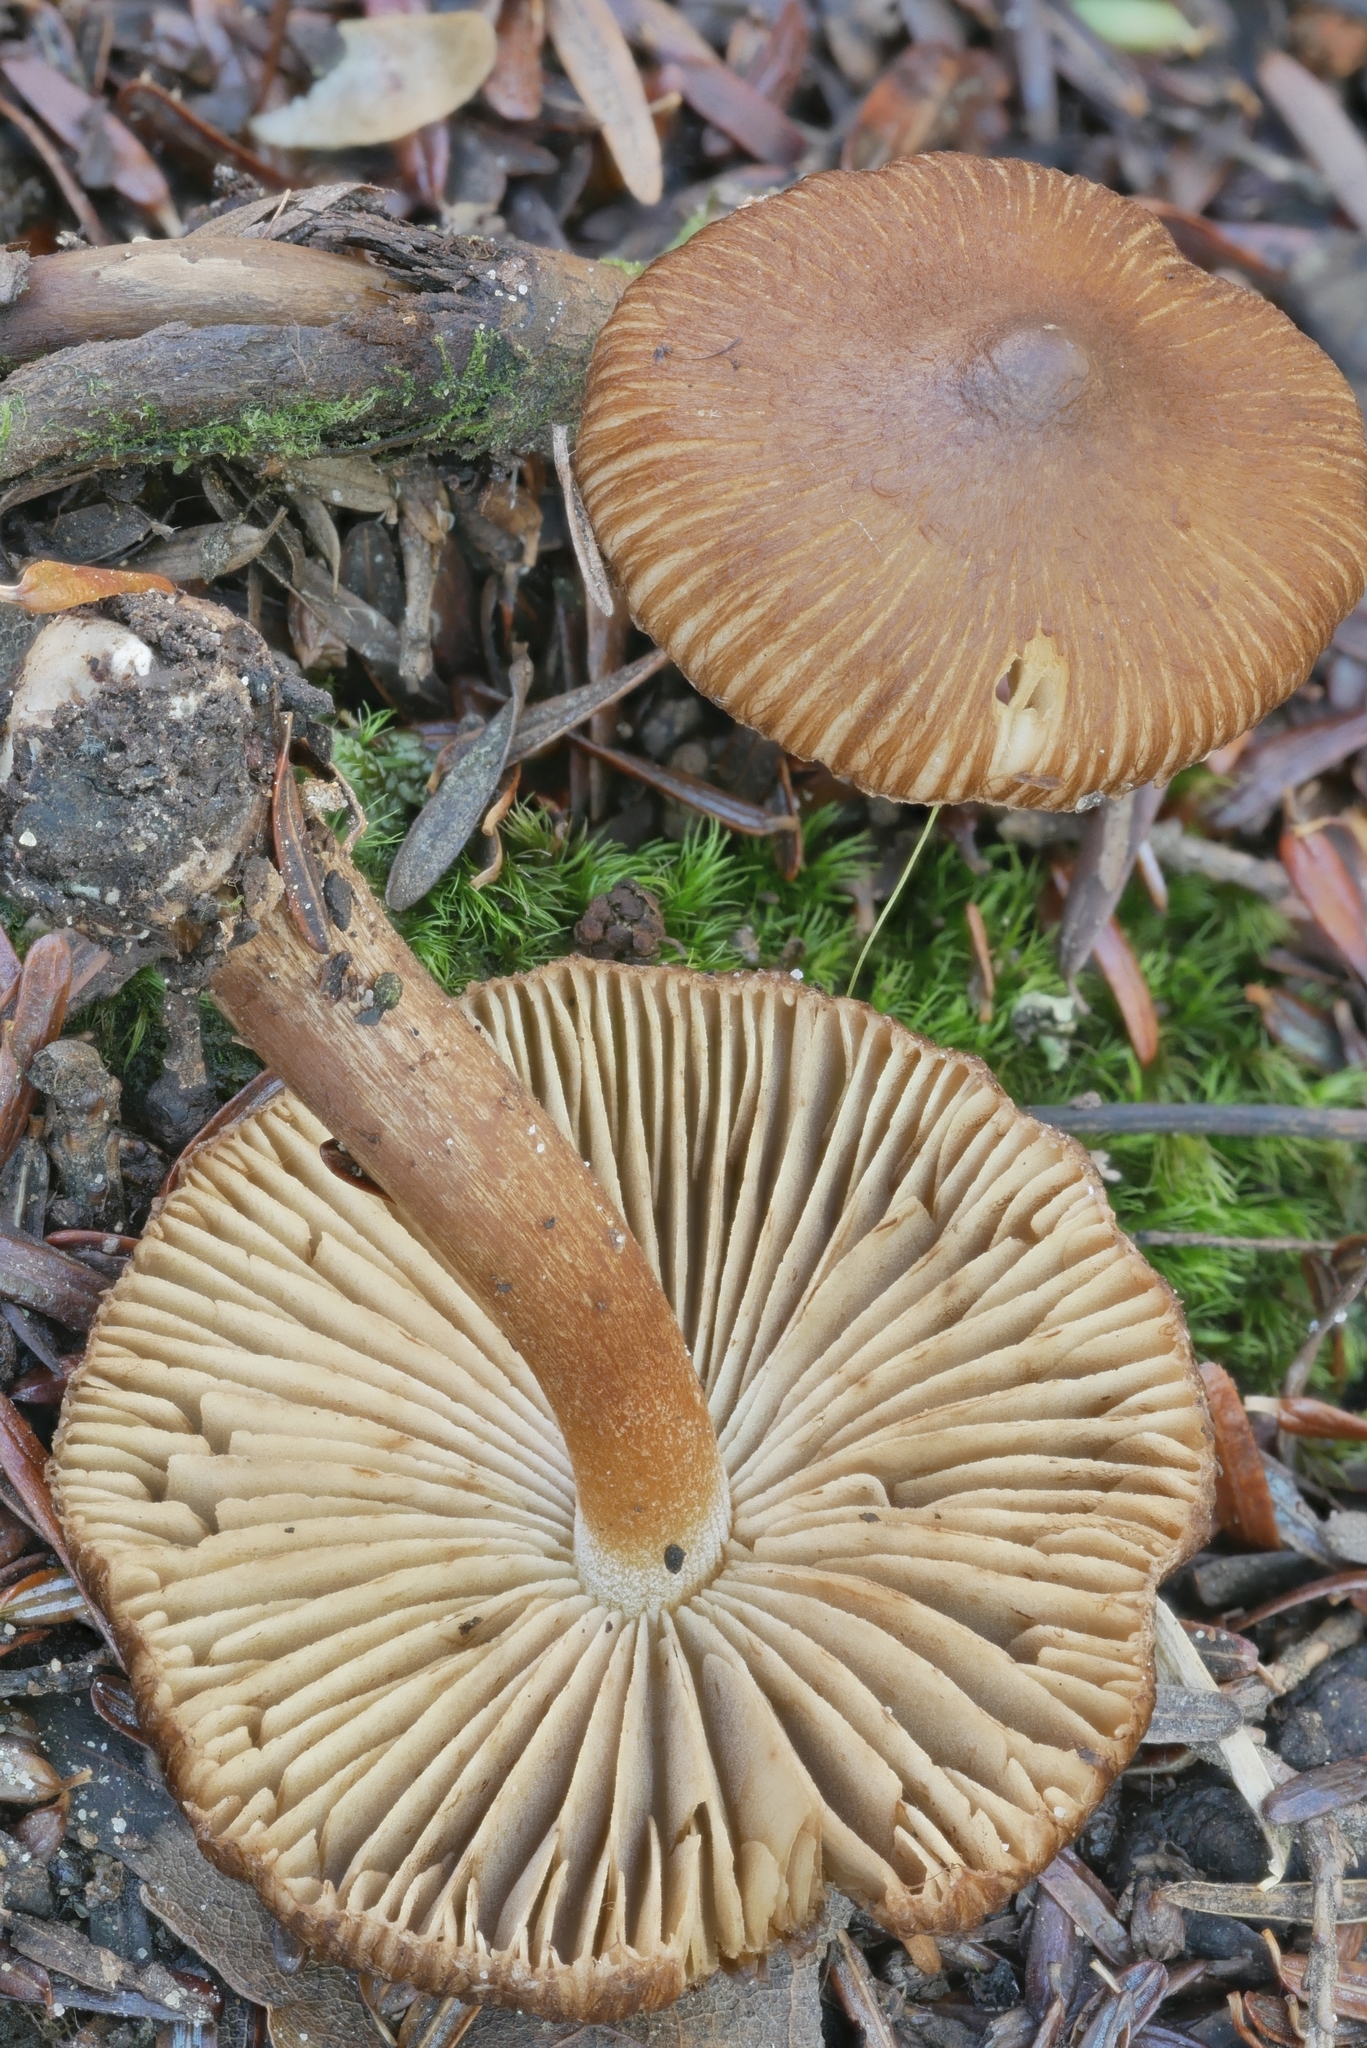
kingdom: Fungi
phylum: Basidiomycota
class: Agaricomycetes
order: Agaricales
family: Inocybaceae
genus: Inocybe
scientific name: Inocybe digitula
